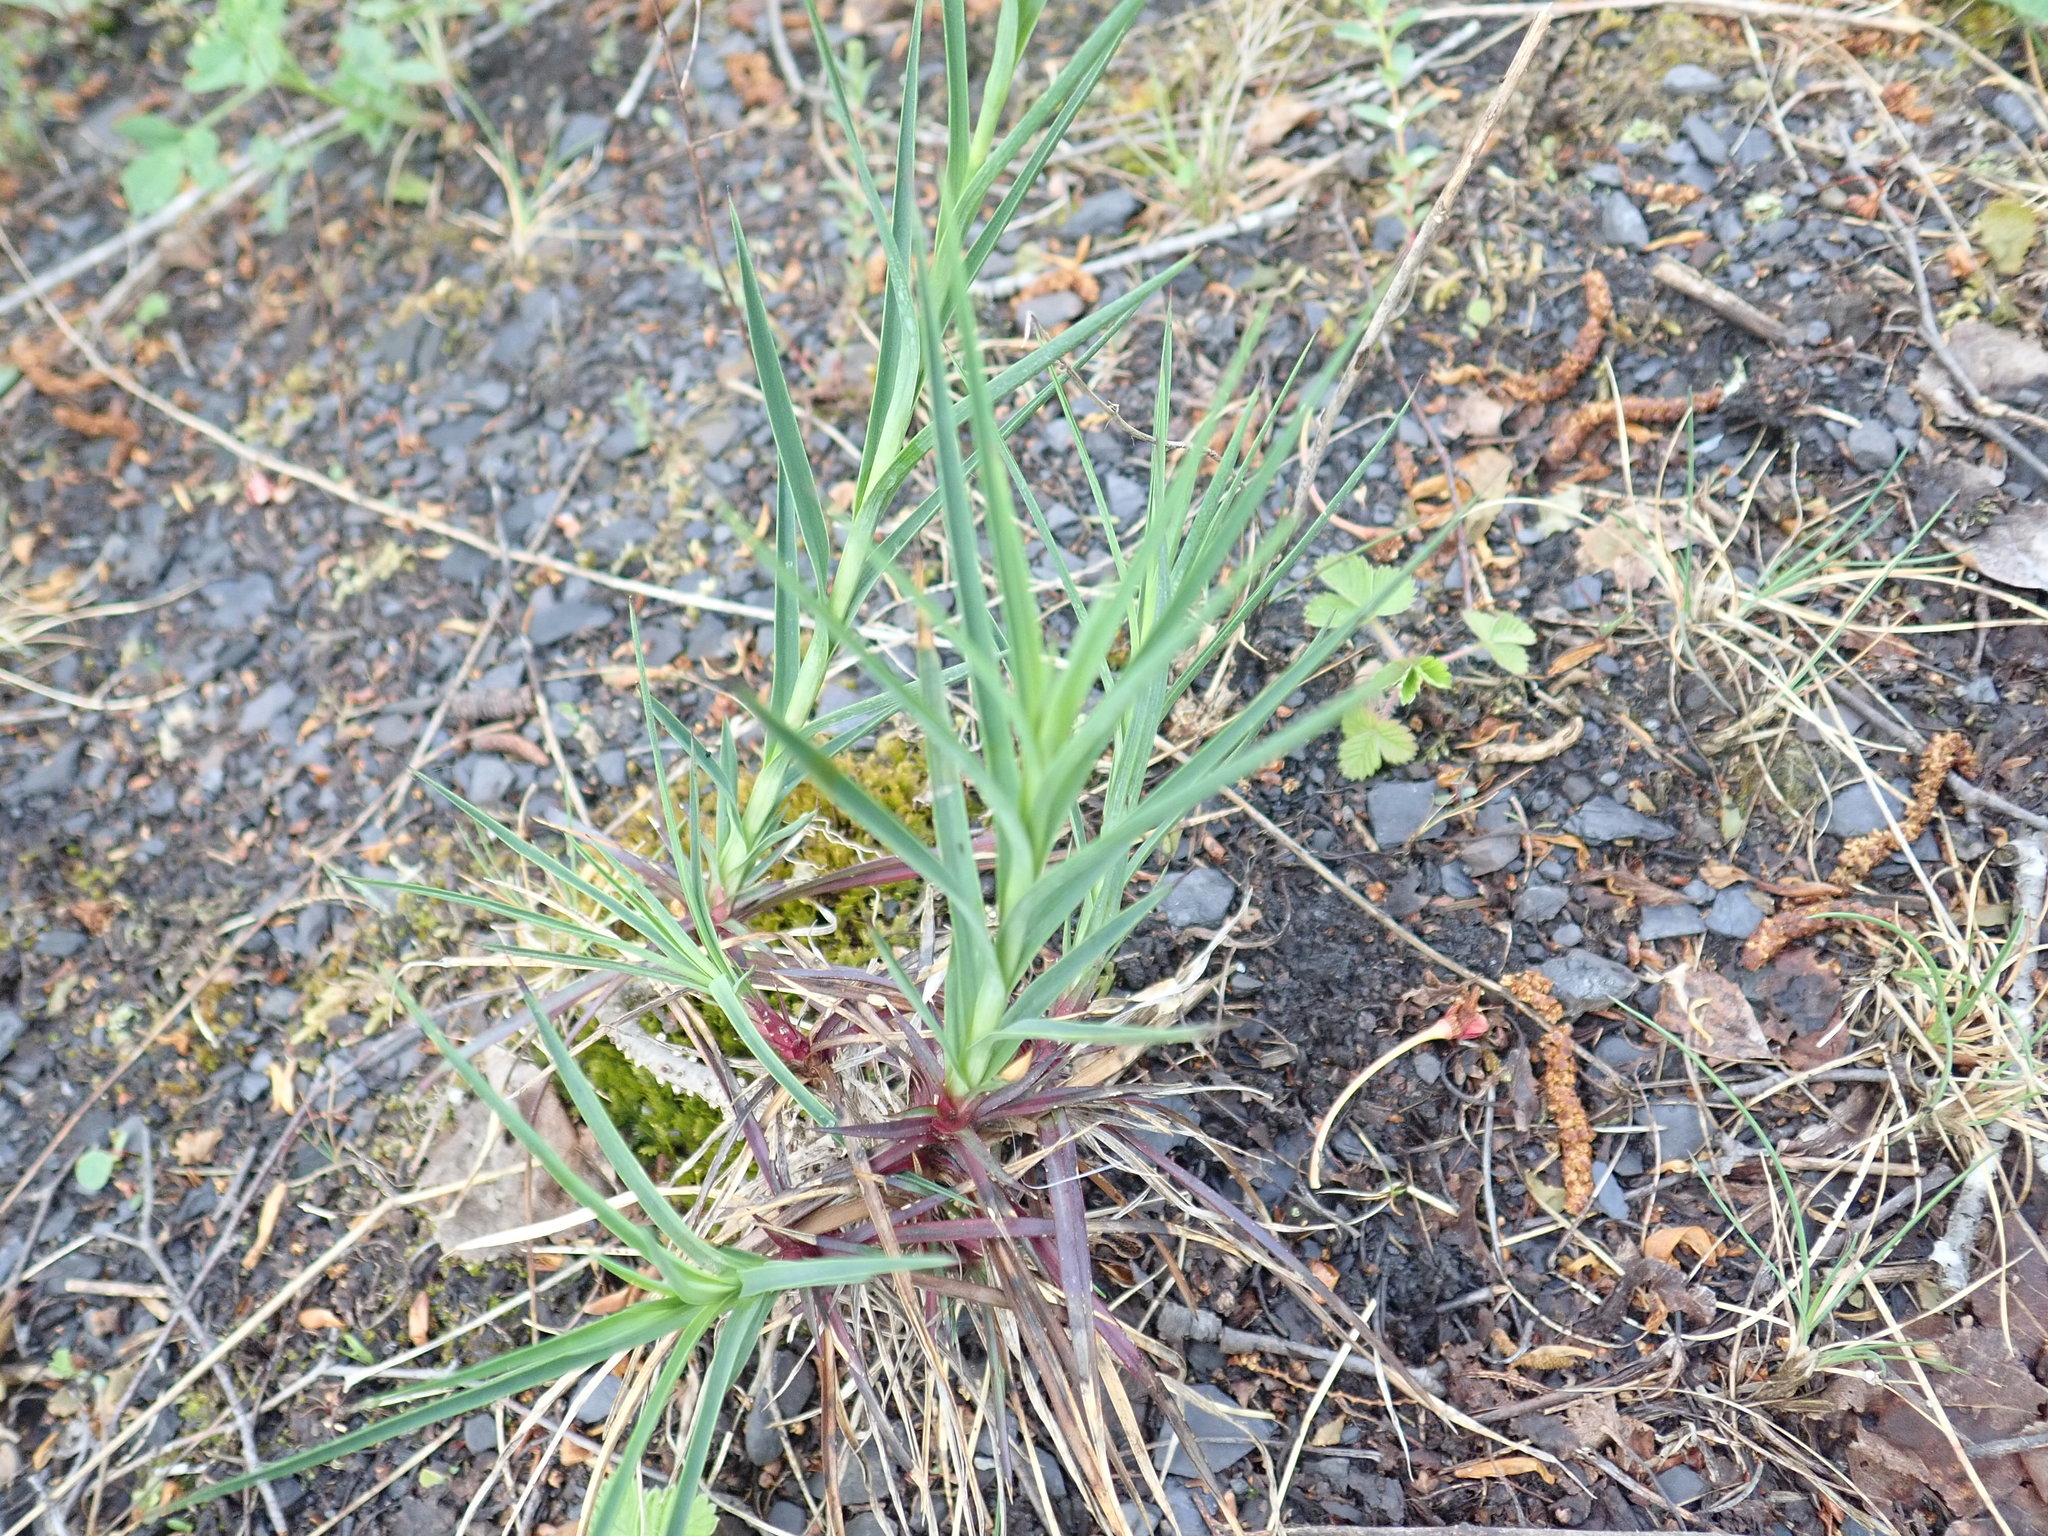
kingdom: Plantae
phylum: Tracheophyta
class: Magnoliopsida
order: Caryophyllales
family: Caryophyllaceae
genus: Dianthus
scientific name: Dianthus
